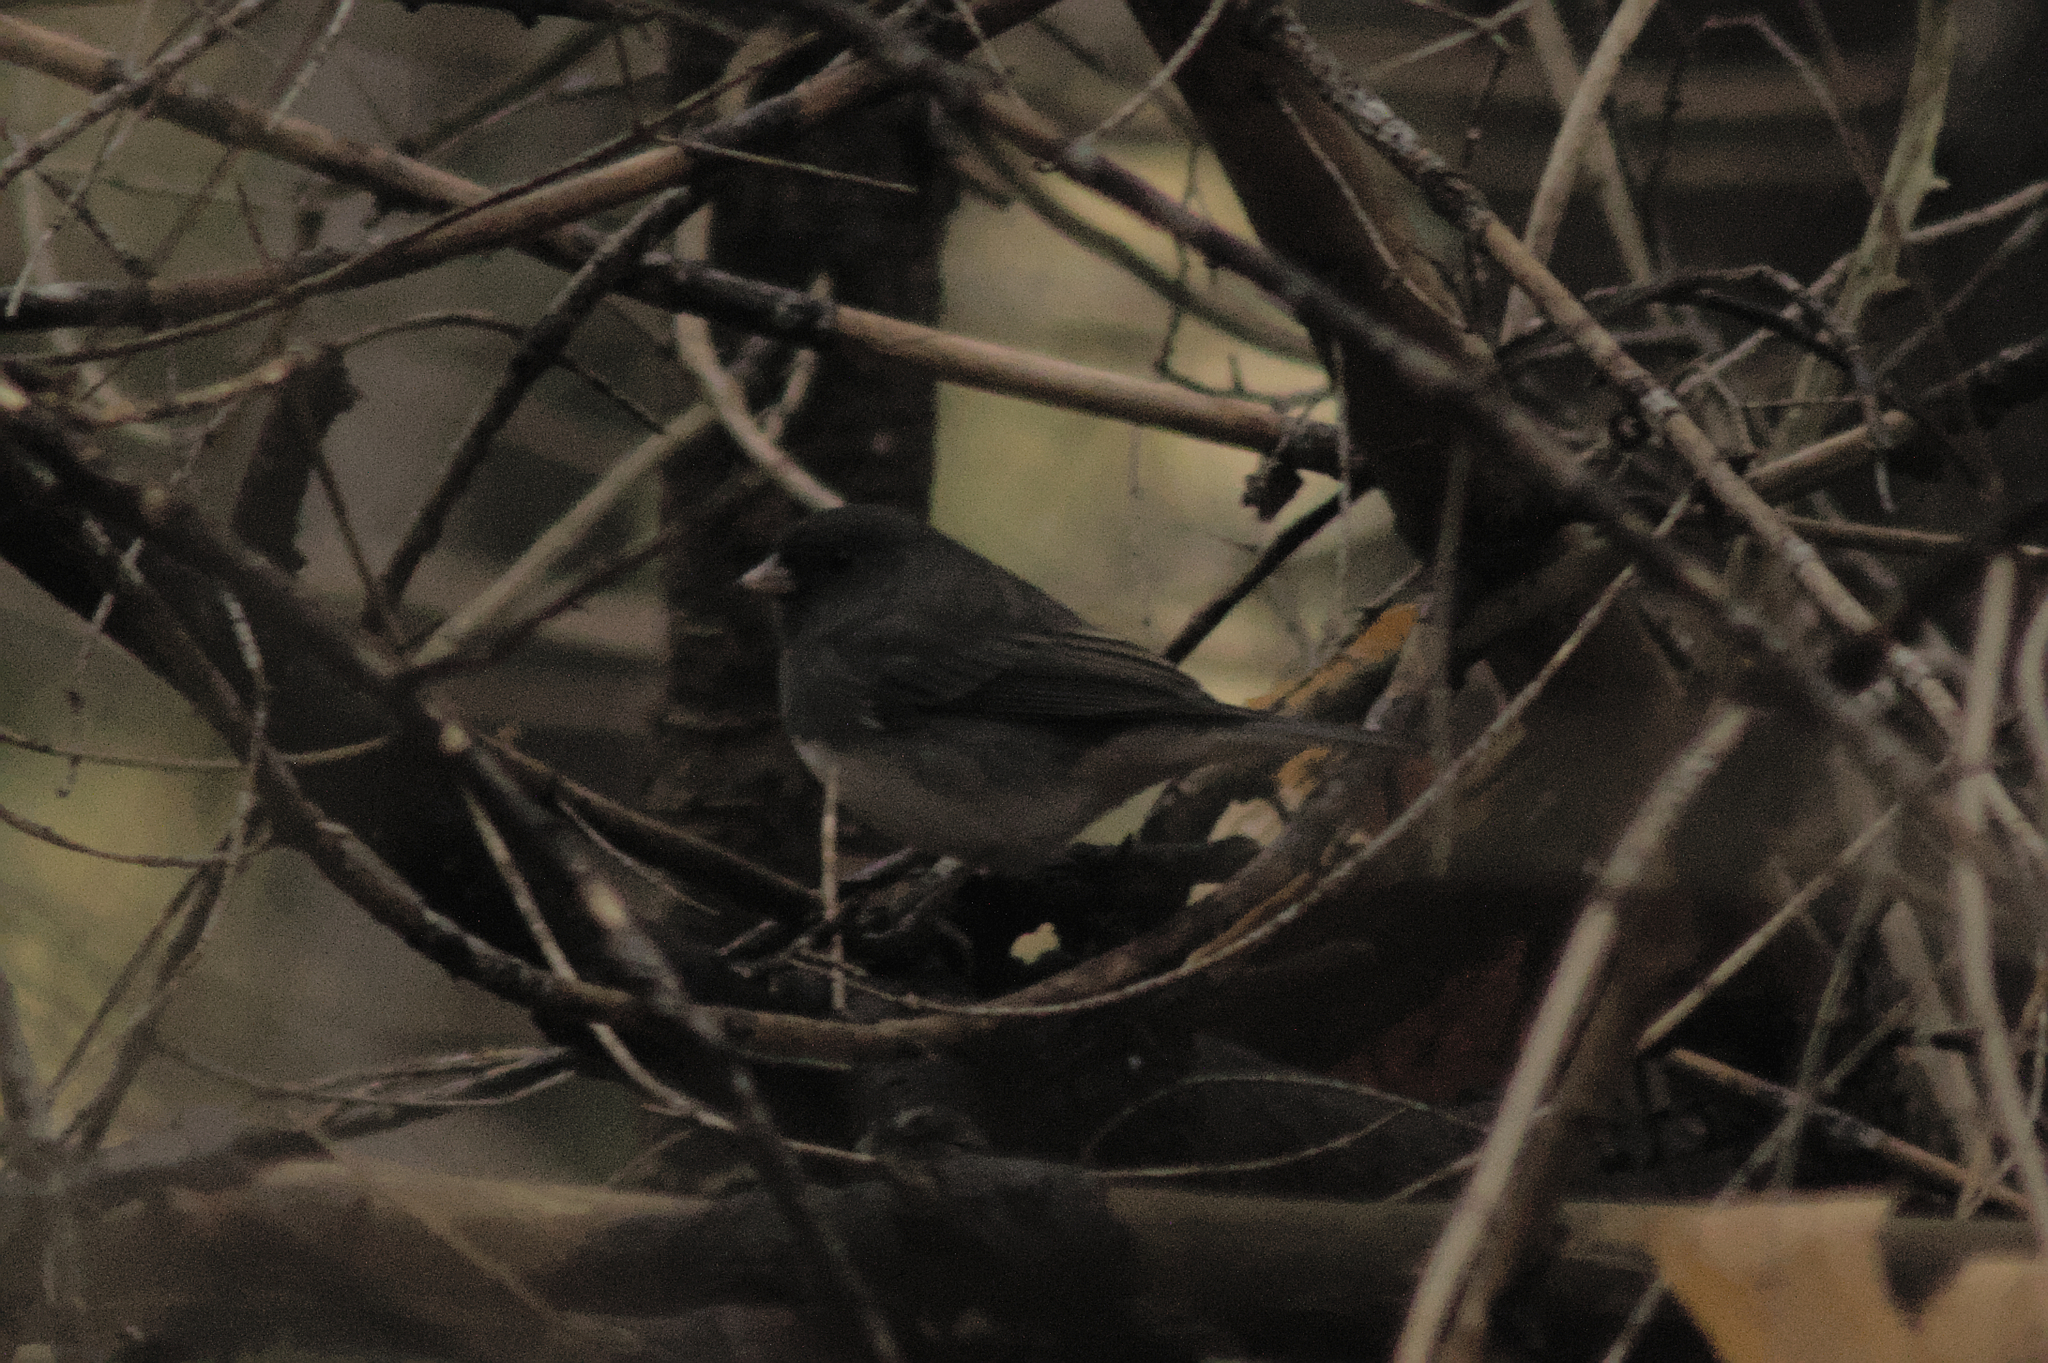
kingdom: Animalia
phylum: Chordata
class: Aves
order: Passeriformes
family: Passerellidae
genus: Junco
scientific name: Junco hyemalis
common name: Dark-eyed junco
